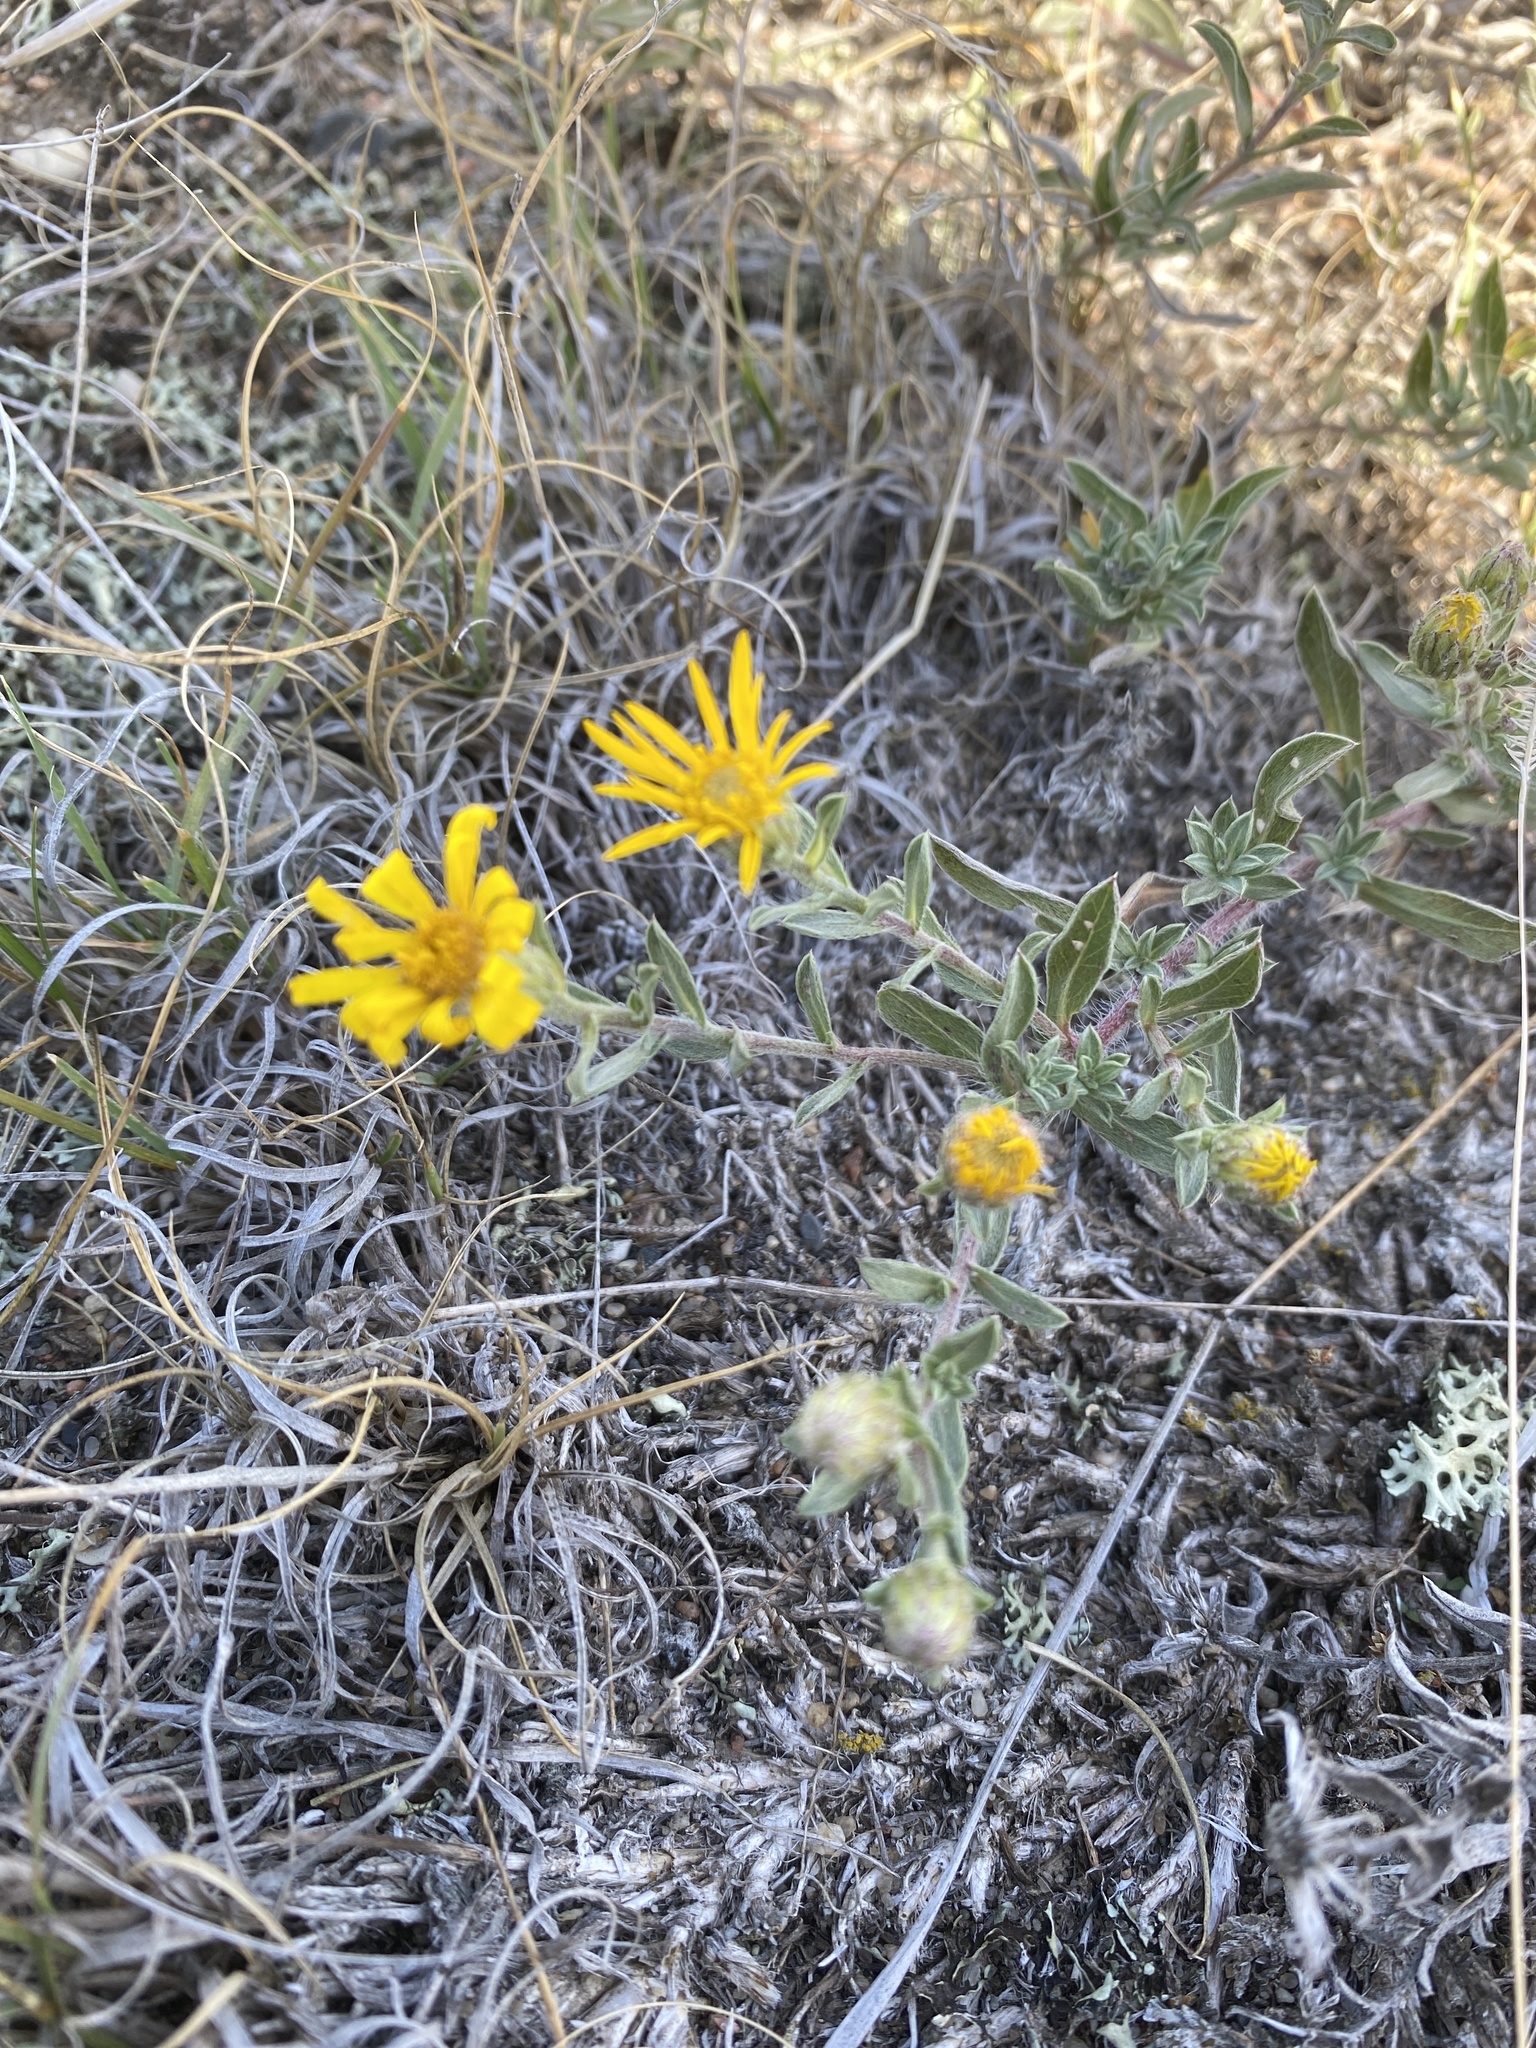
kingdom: Plantae
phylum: Tracheophyta
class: Magnoliopsida
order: Asterales
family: Asteraceae
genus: Heterotheca
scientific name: Heterotheca villosa
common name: Hairy false goldenaster
